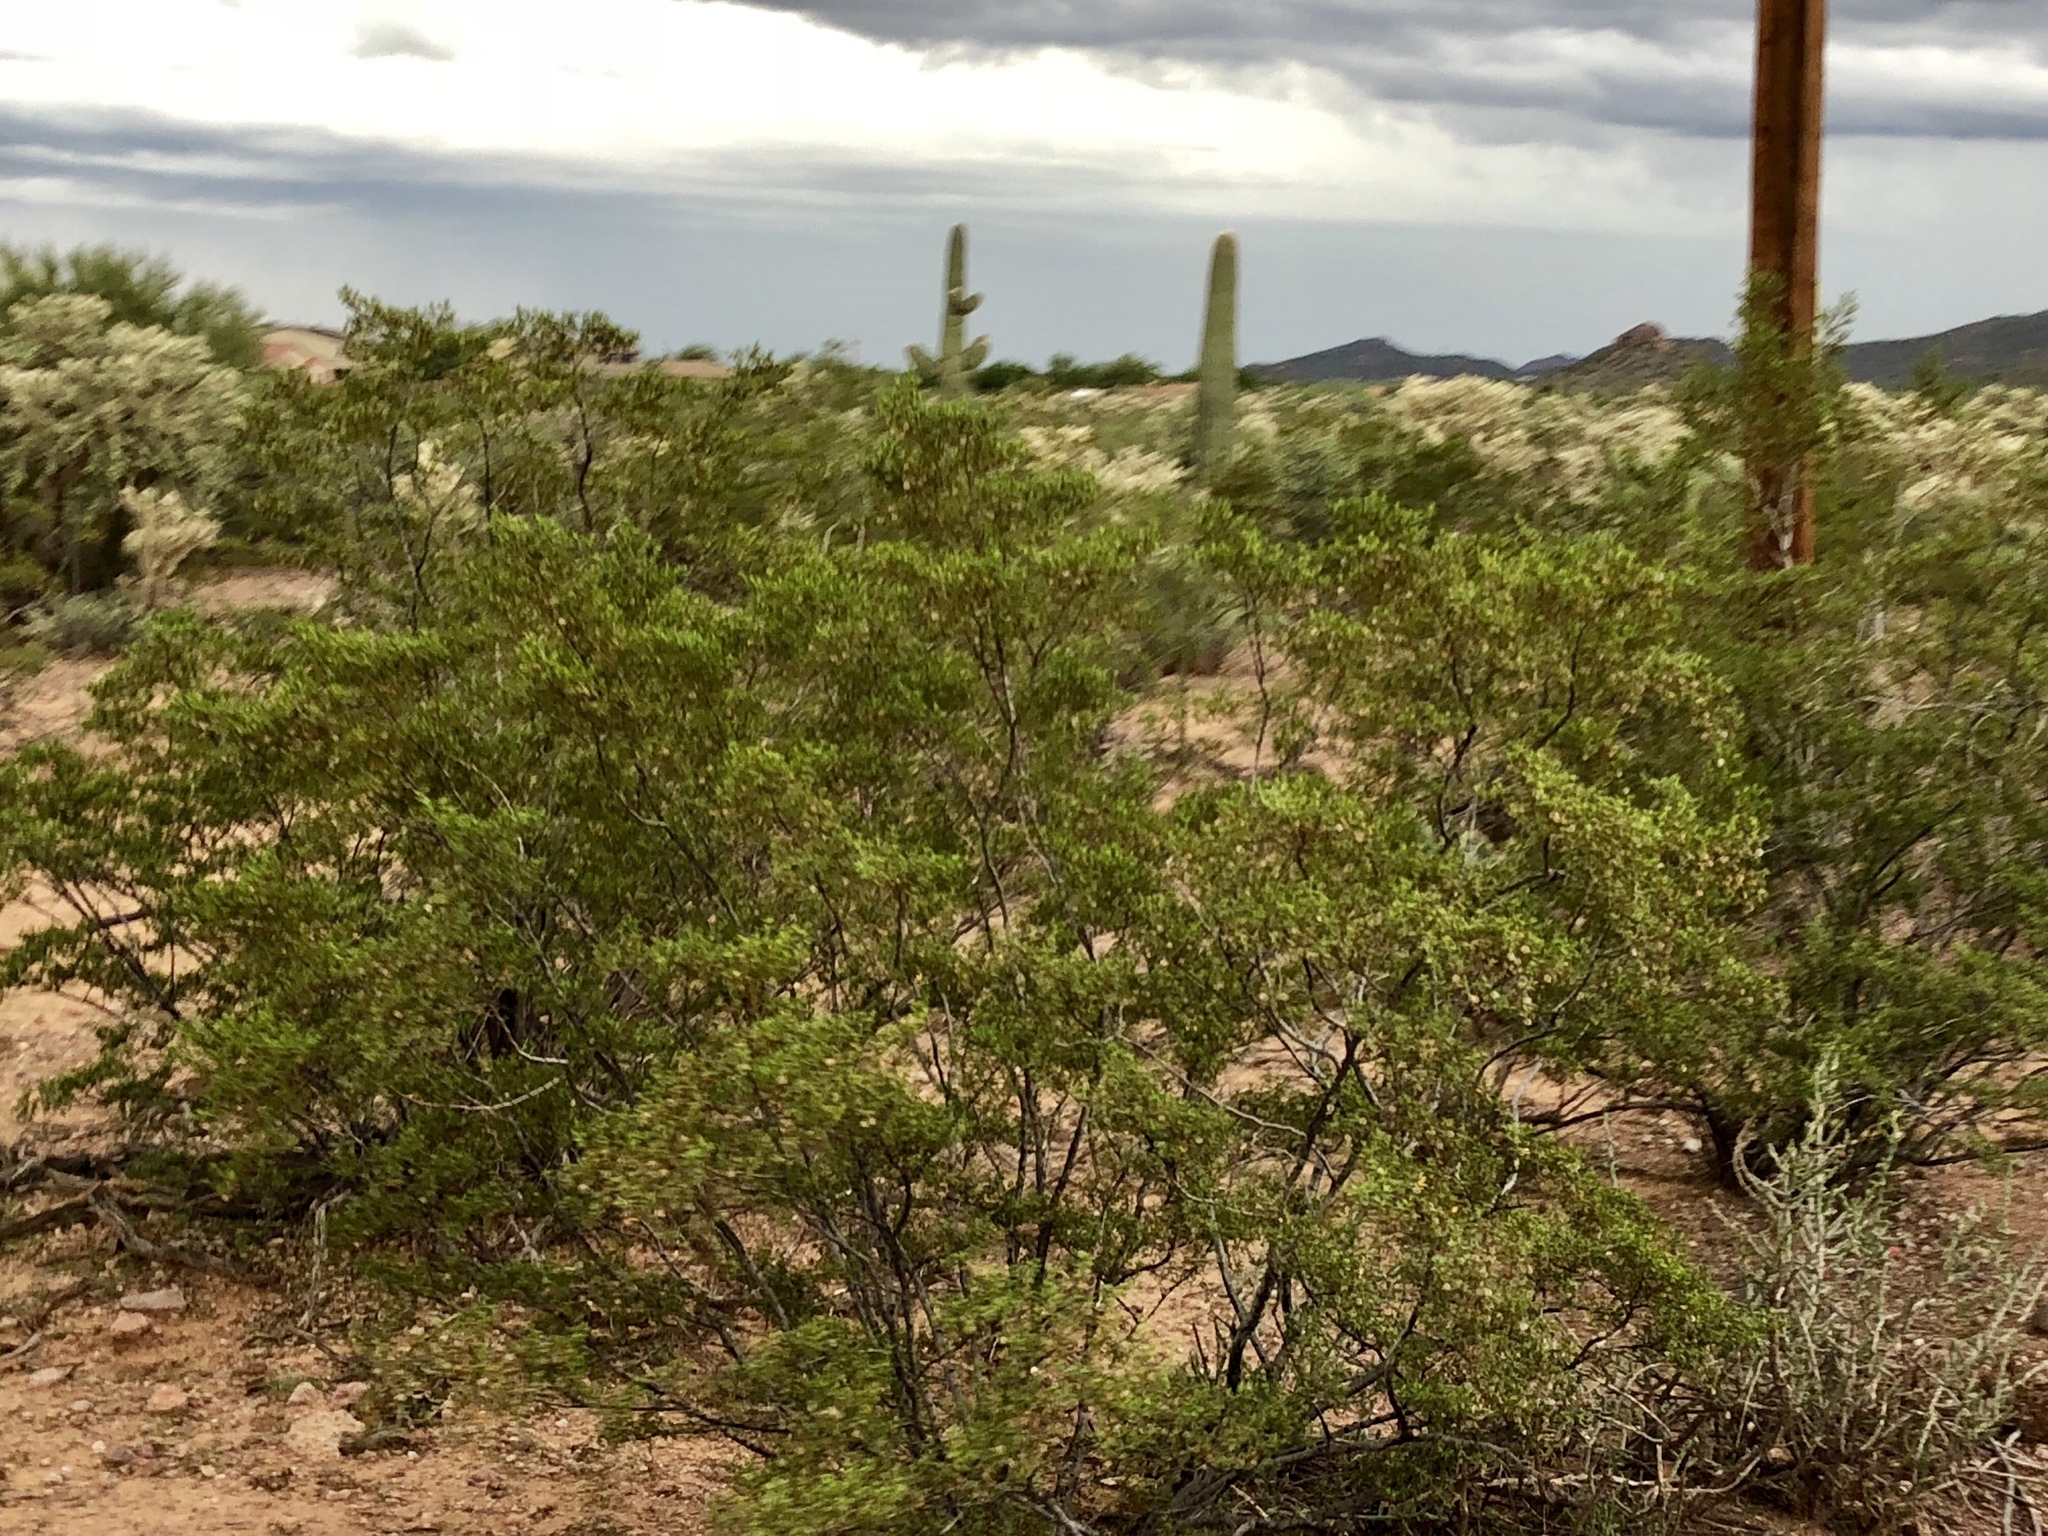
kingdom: Plantae
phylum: Tracheophyta
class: Magnoliopsida
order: Zygophyllales
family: Zygophyllaceae
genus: Larrea
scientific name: Larrea tridentata
